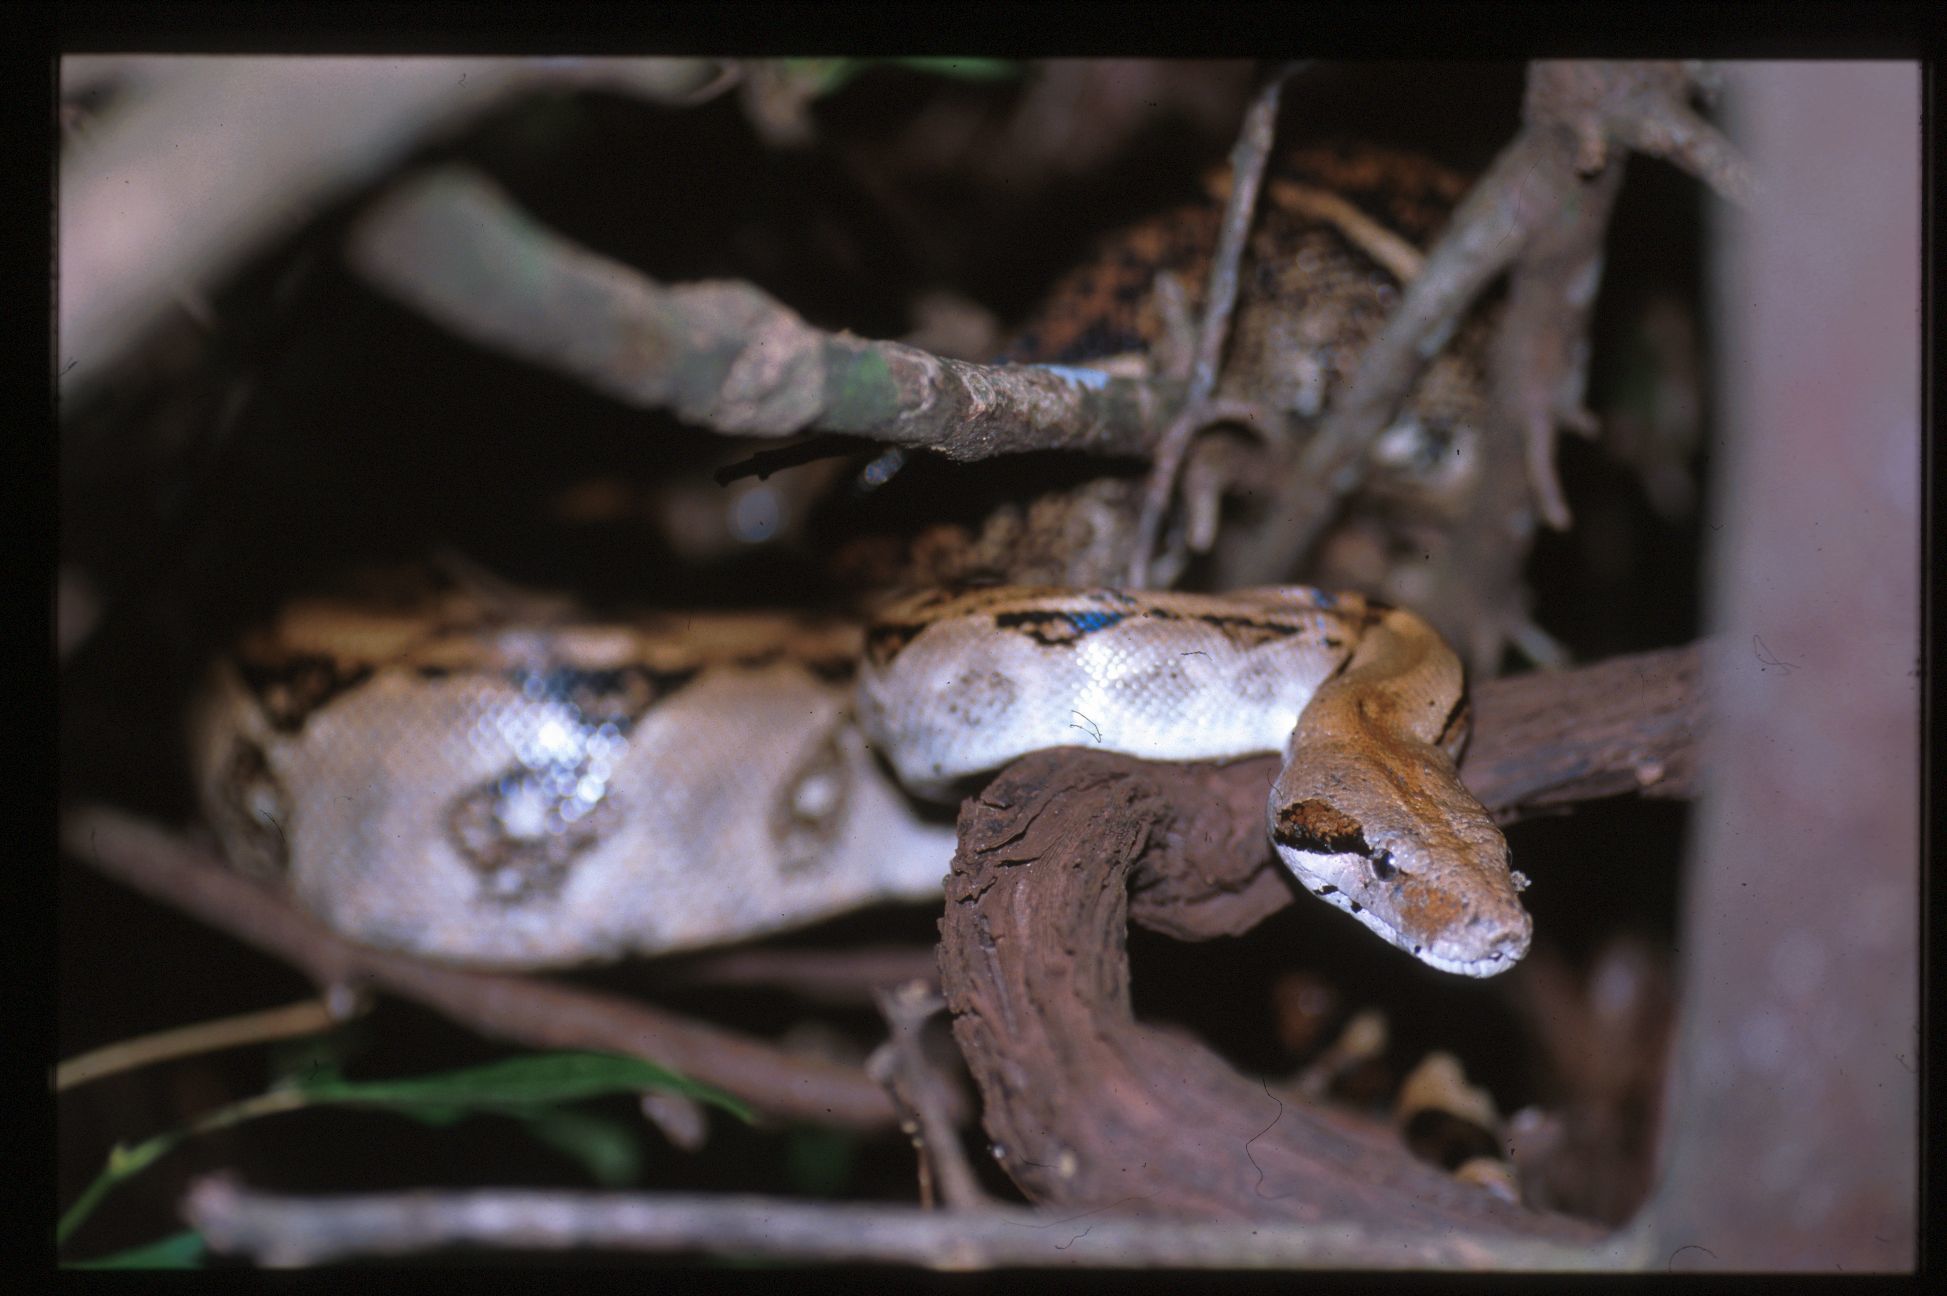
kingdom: Animalia
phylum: Chordata
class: Squamata
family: Boidae
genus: Boa
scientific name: Boa imperator
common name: Central american boa
